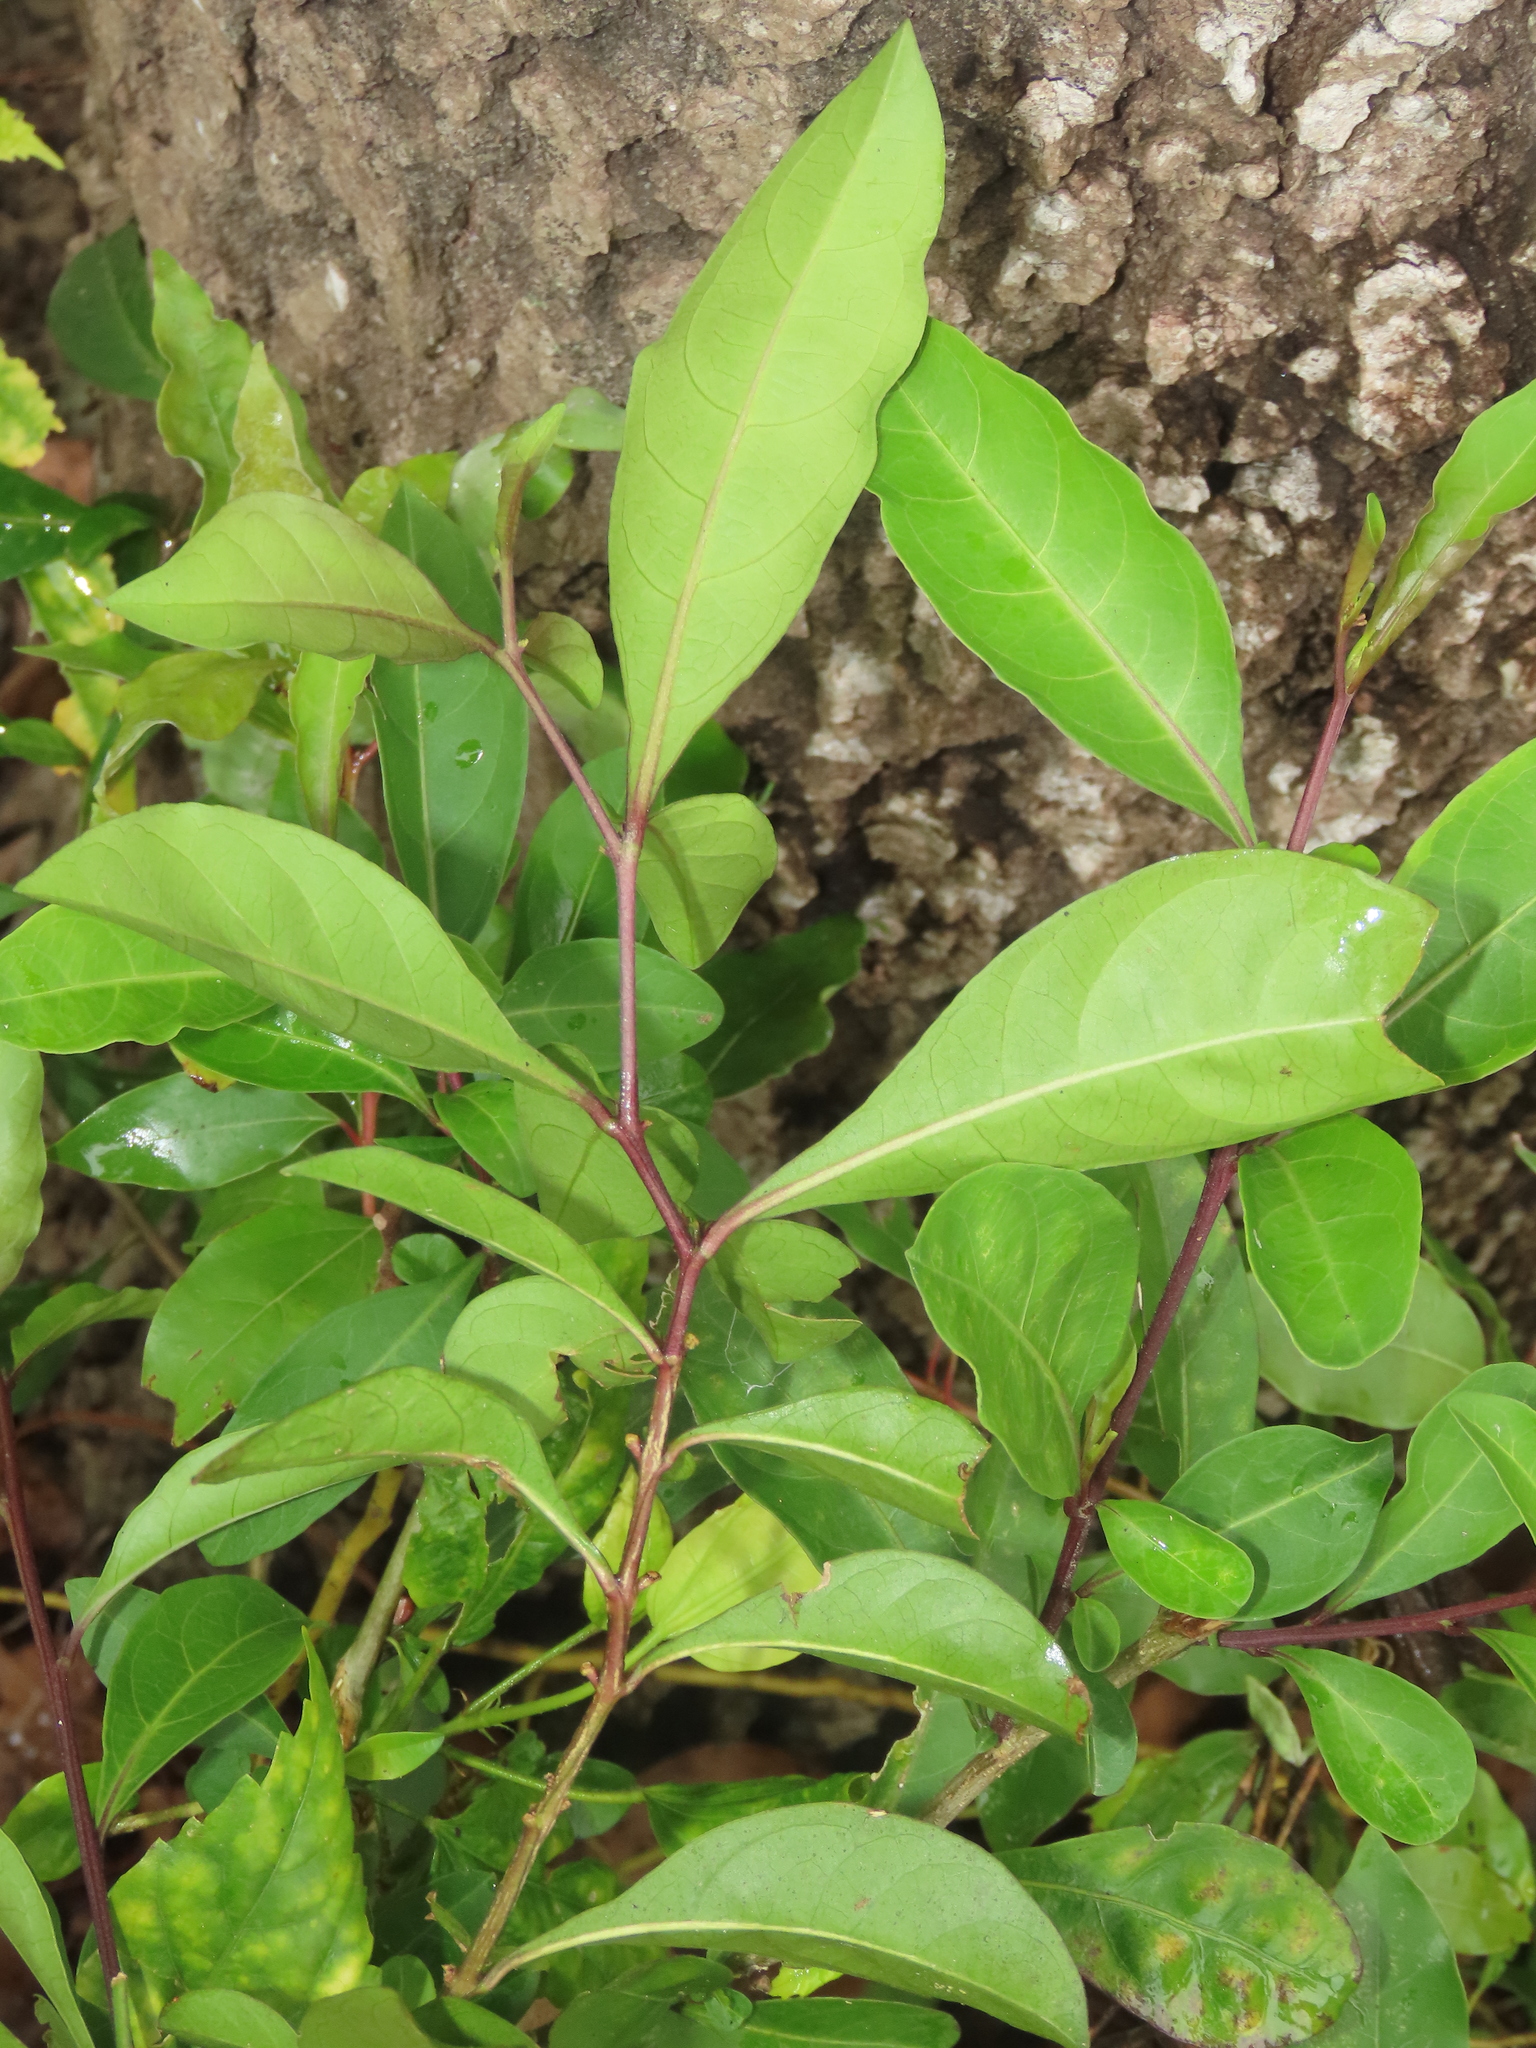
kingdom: Plantae
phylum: Tracheophyta
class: Magnoliopsida
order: Malpighiales
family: Phyllanthaceae
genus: Glochidion
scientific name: Glochidion rubrum
